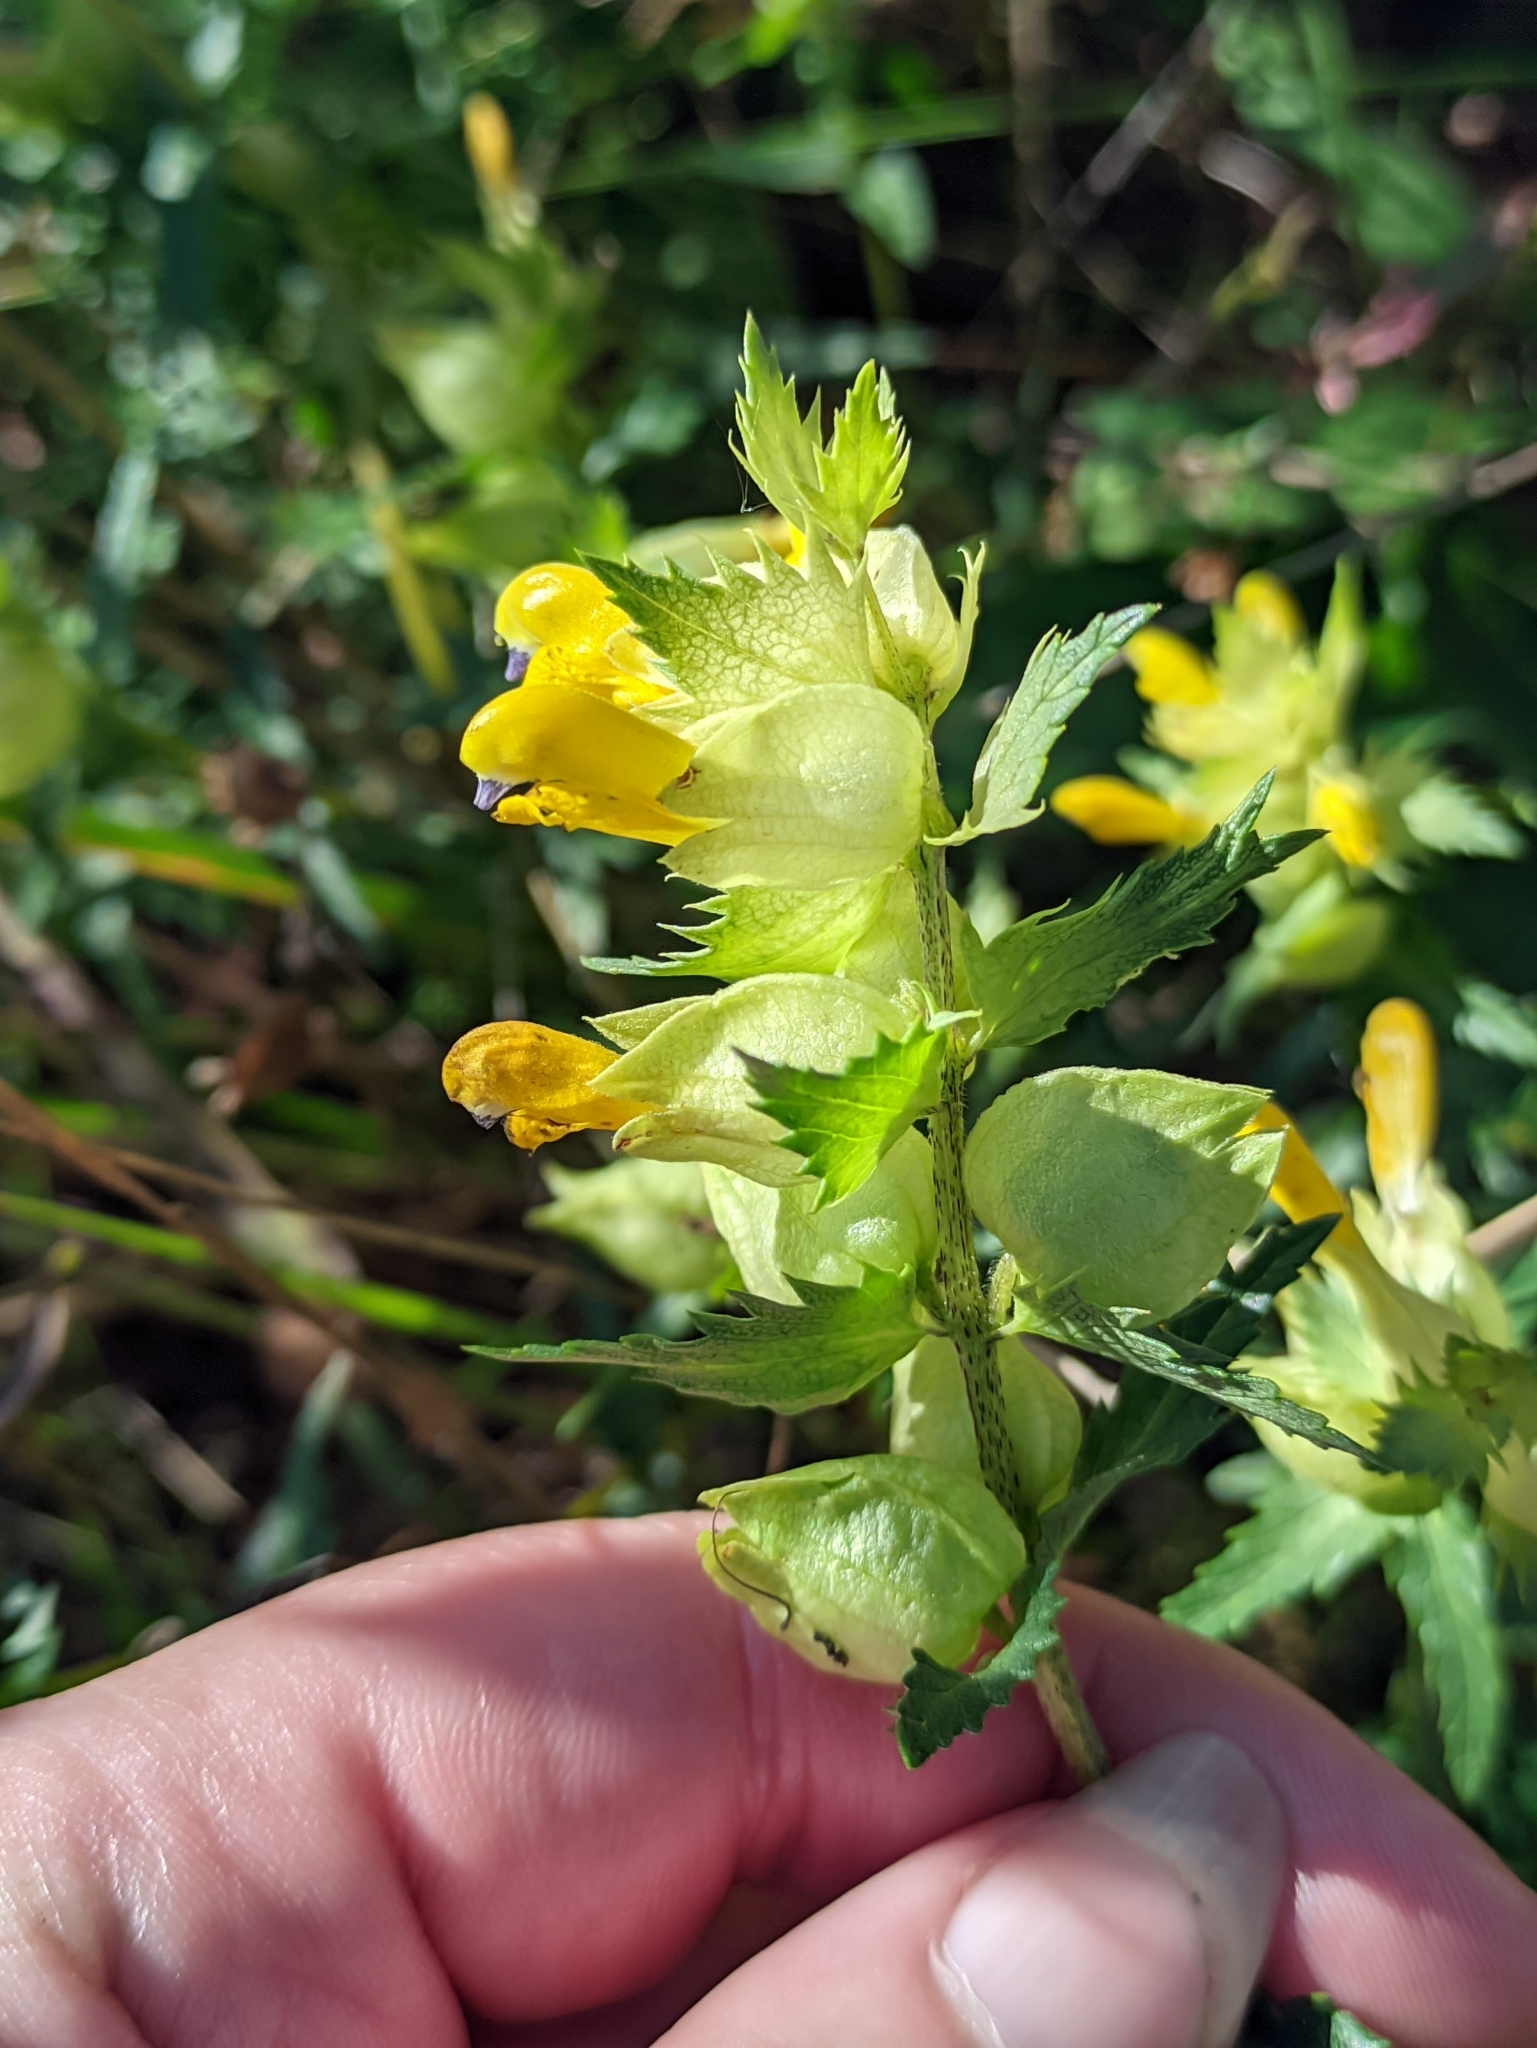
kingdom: Plantae
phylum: Tracheophyta
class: Magnoliopsida
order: Lamiales
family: Orobanchaceae
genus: Rhinanthus
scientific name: Rhinanthus serotinus
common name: Late-flowering yellow rattle
